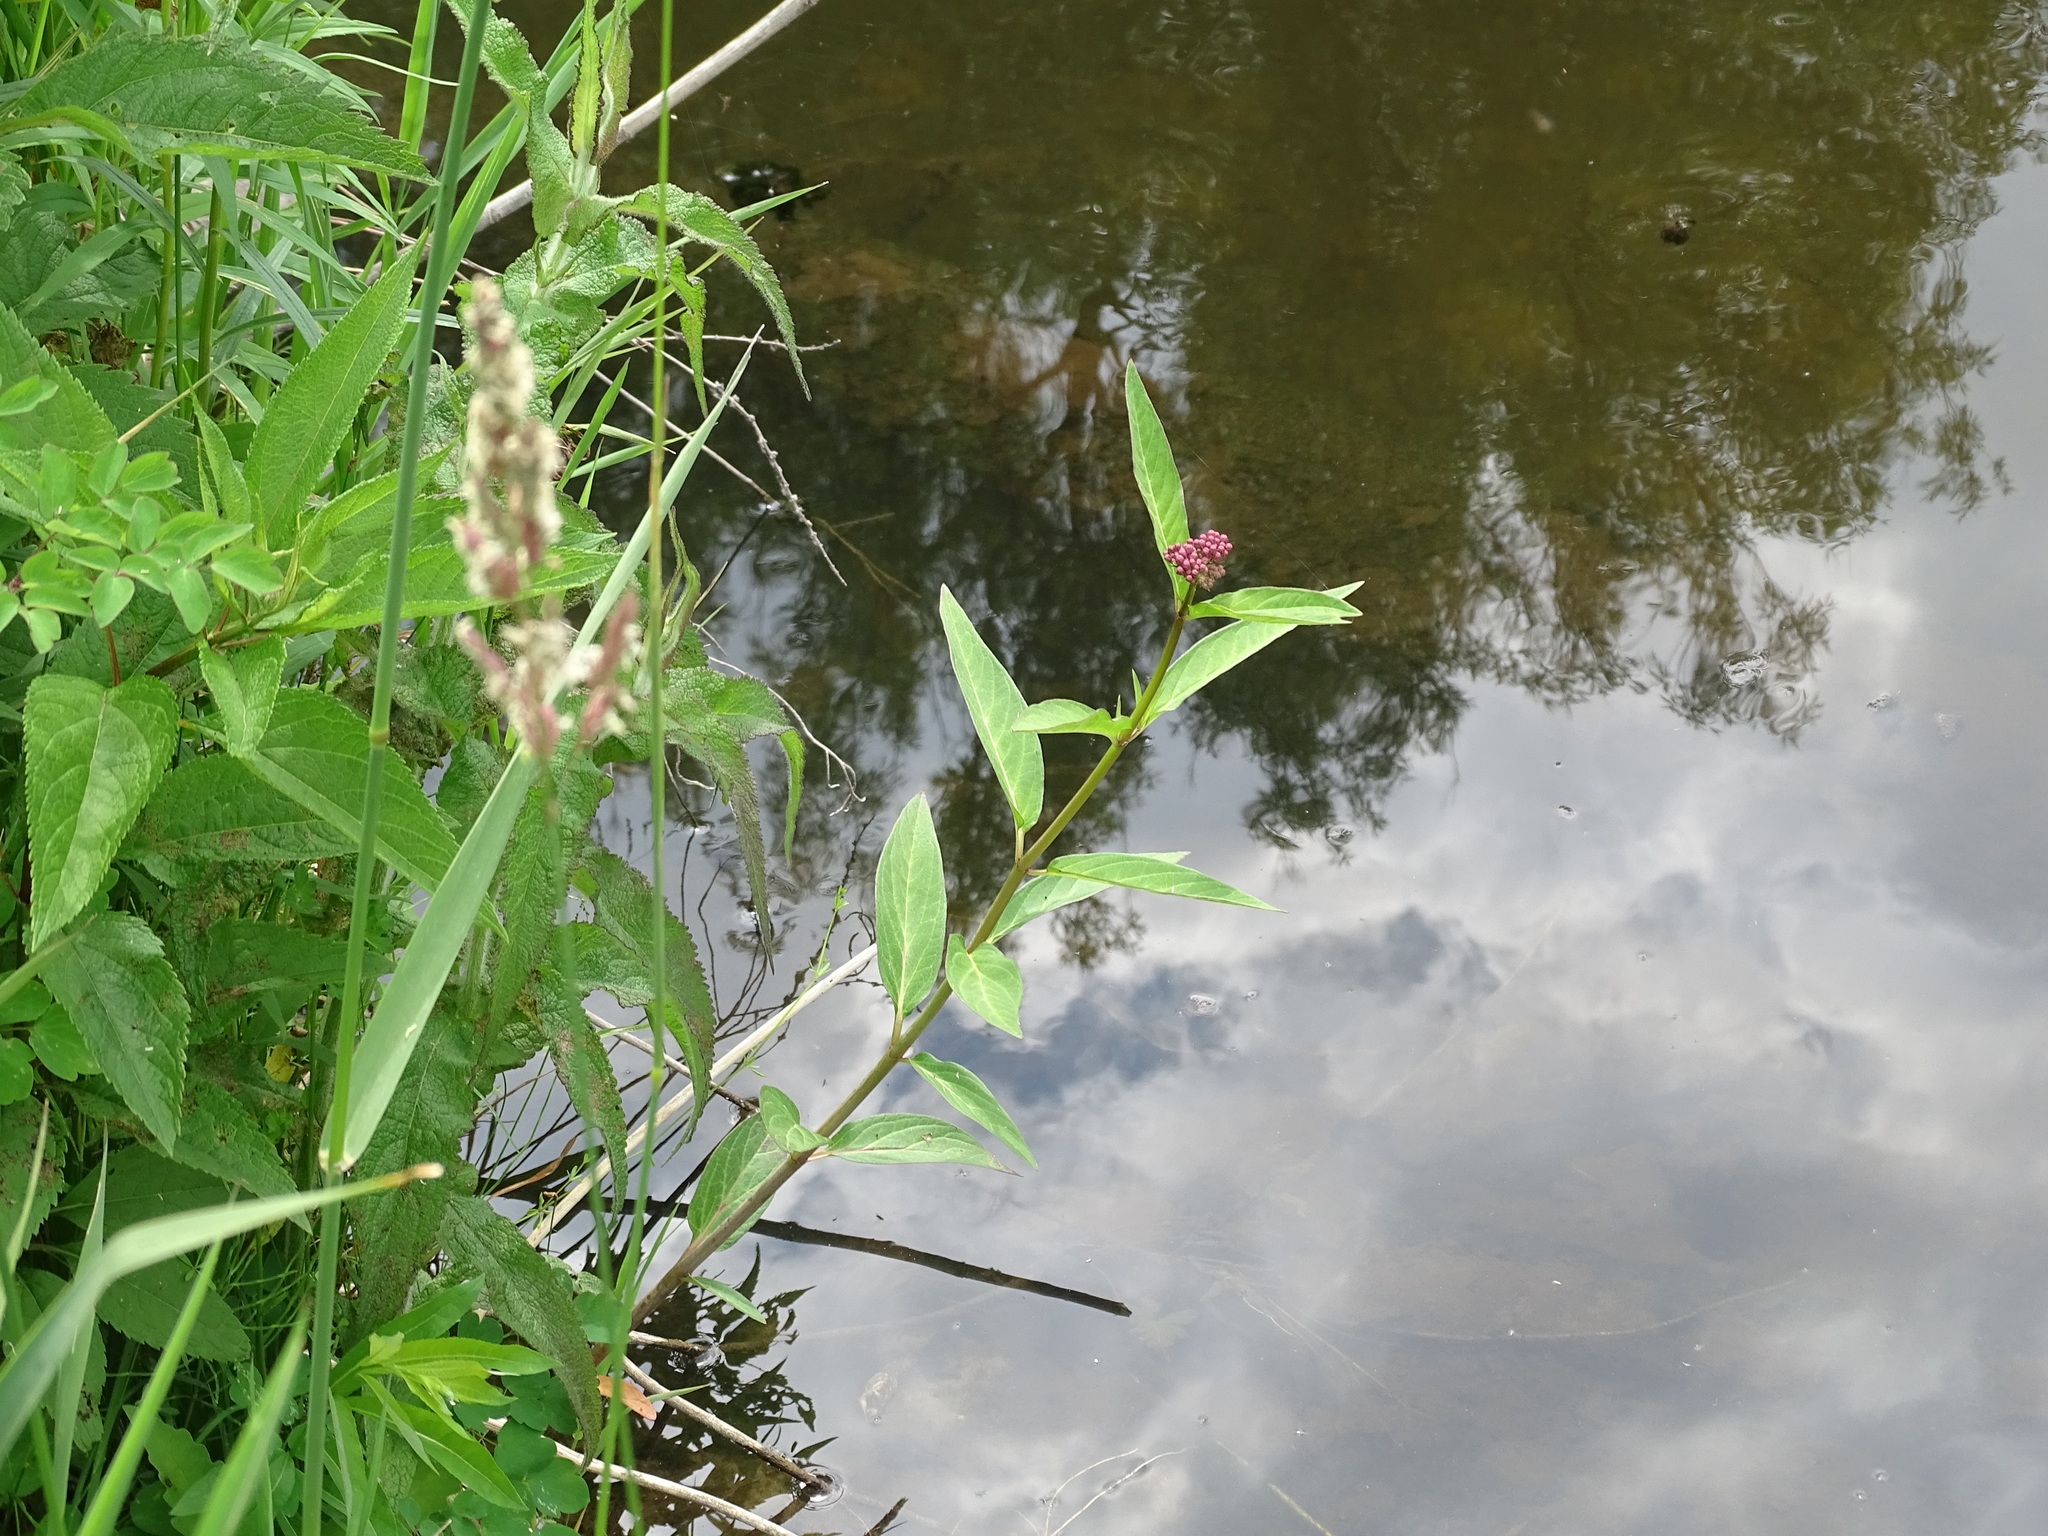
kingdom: Plantae
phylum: Tracheophyta
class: Magnoliopsida
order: Gentianales
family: Apocynaceae
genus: Asclepias
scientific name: Asclepias incarnata
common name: Swamp milkweed
